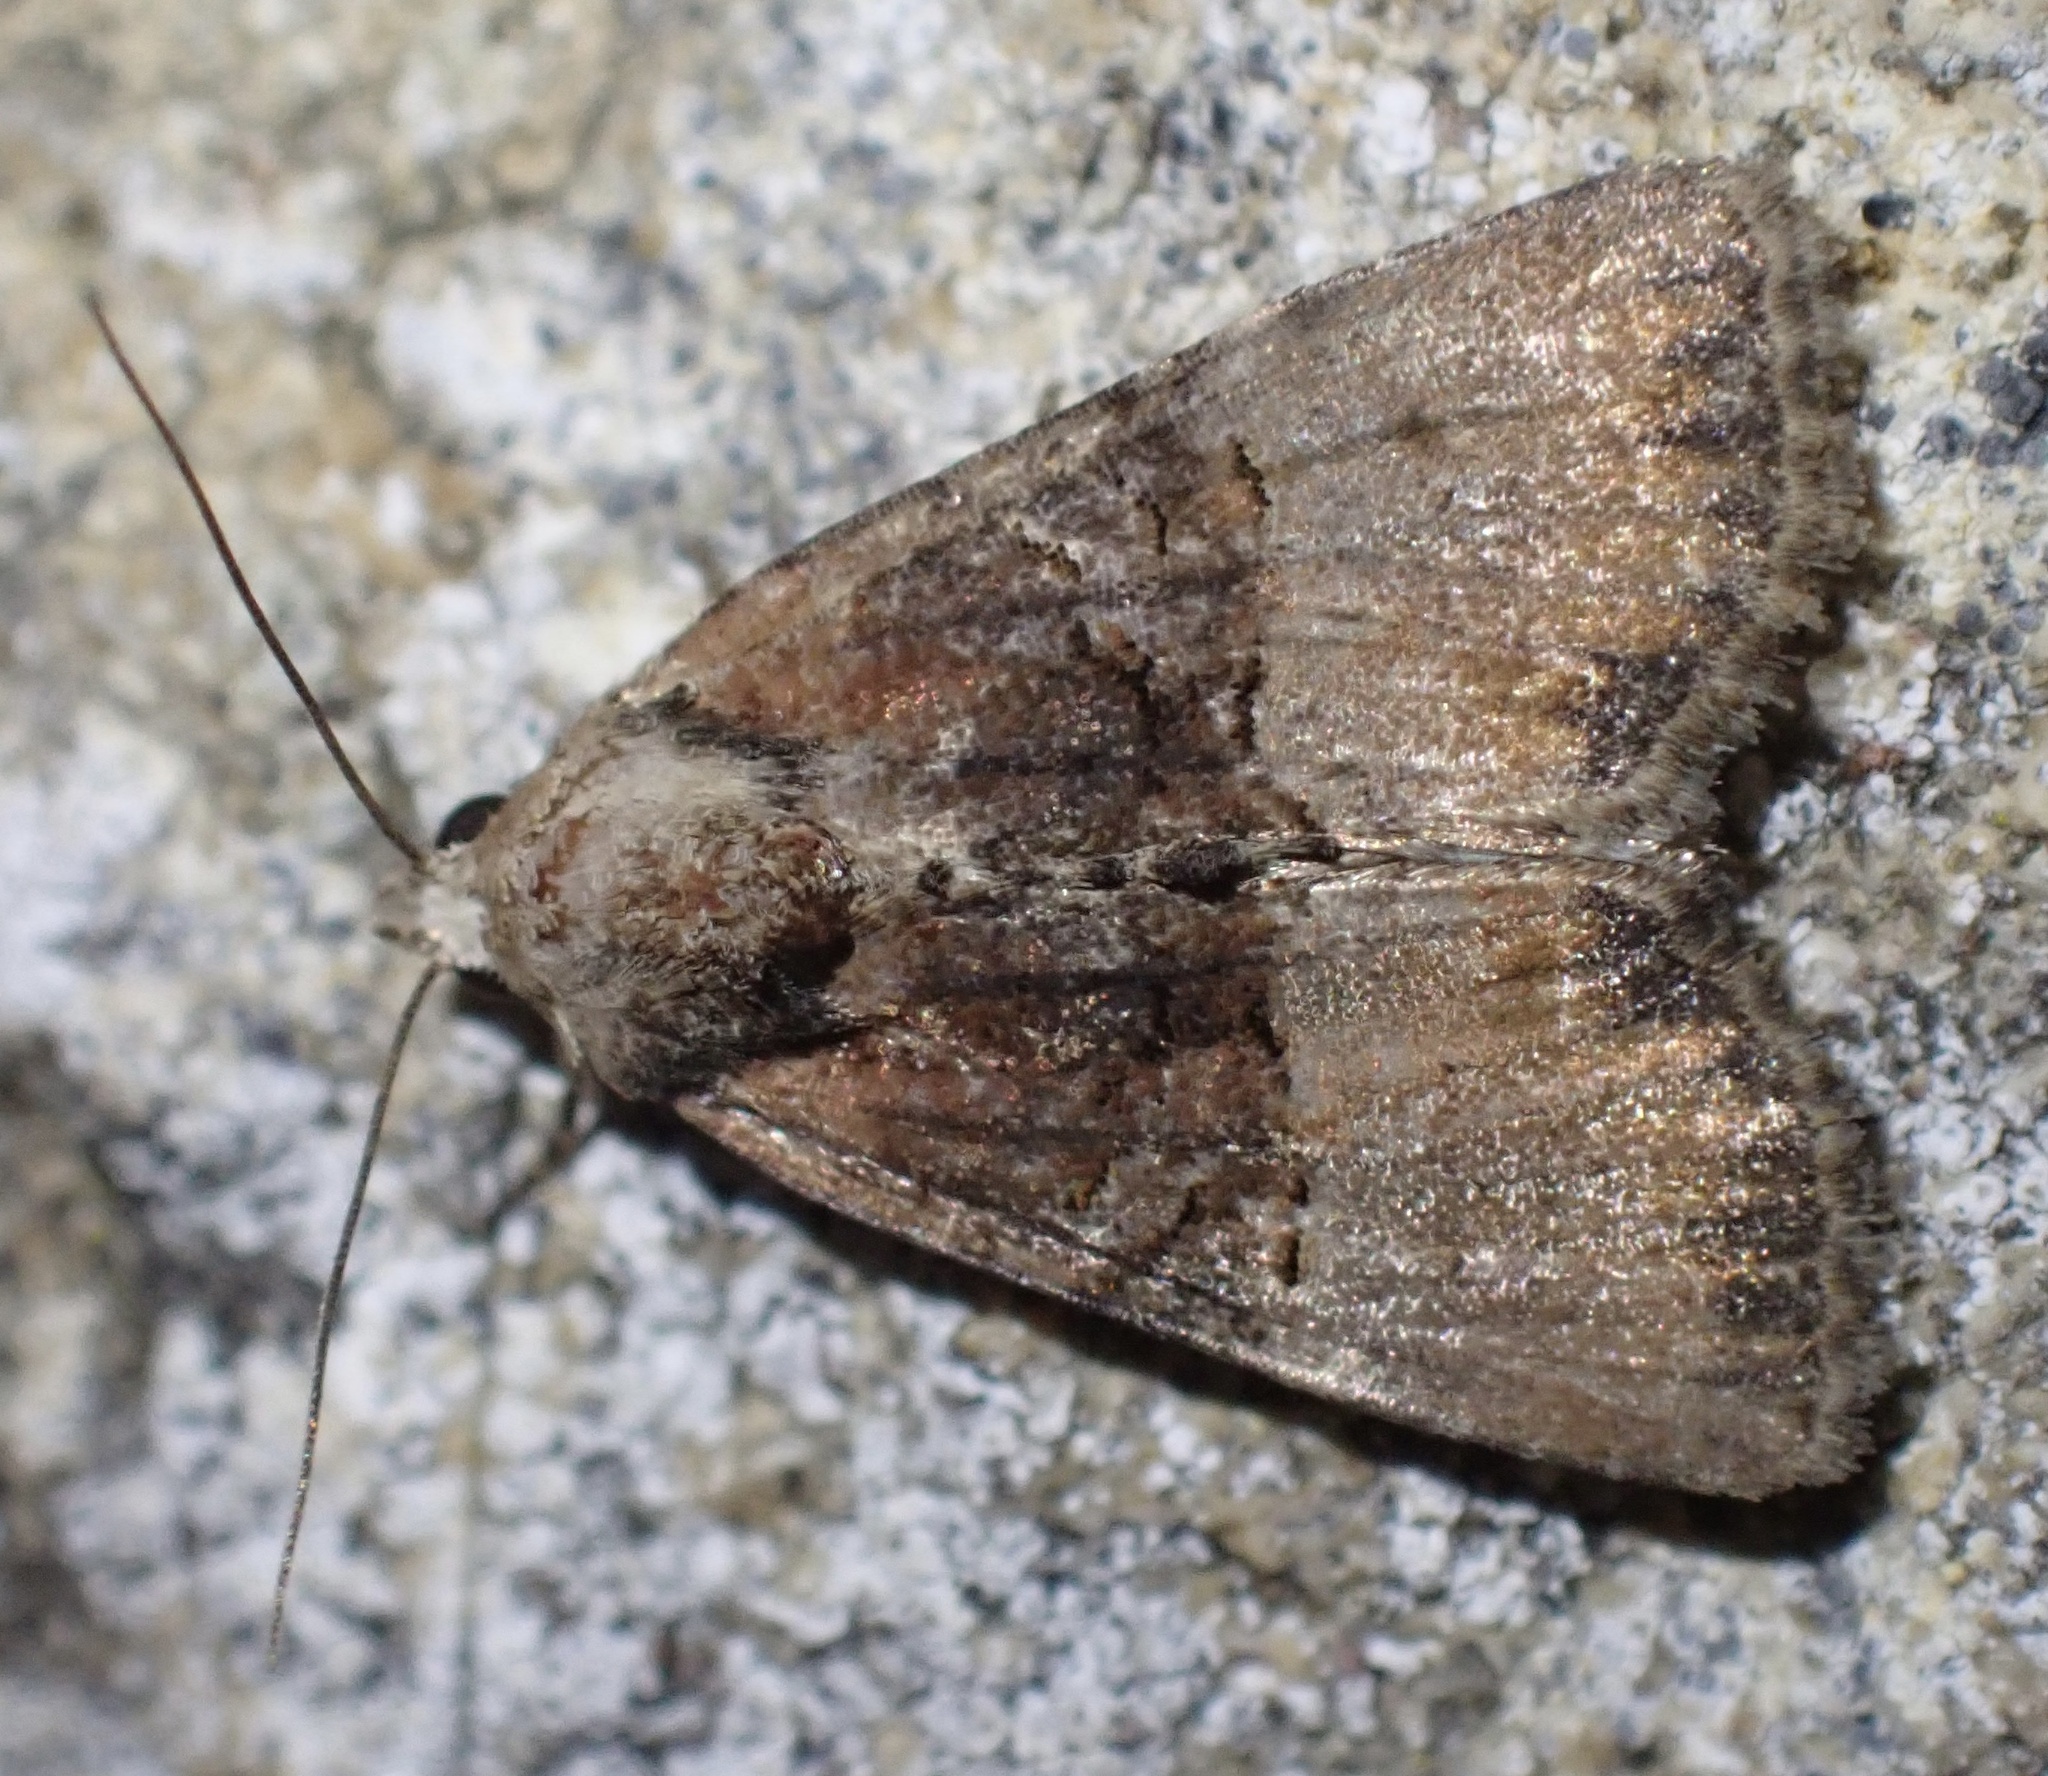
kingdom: Animalia
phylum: Arthropoda
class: Insecta
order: Lepidoptera
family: Noctuidae
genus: Mesoligia
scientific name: Mesoligia furuncula
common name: Cloaked minor
